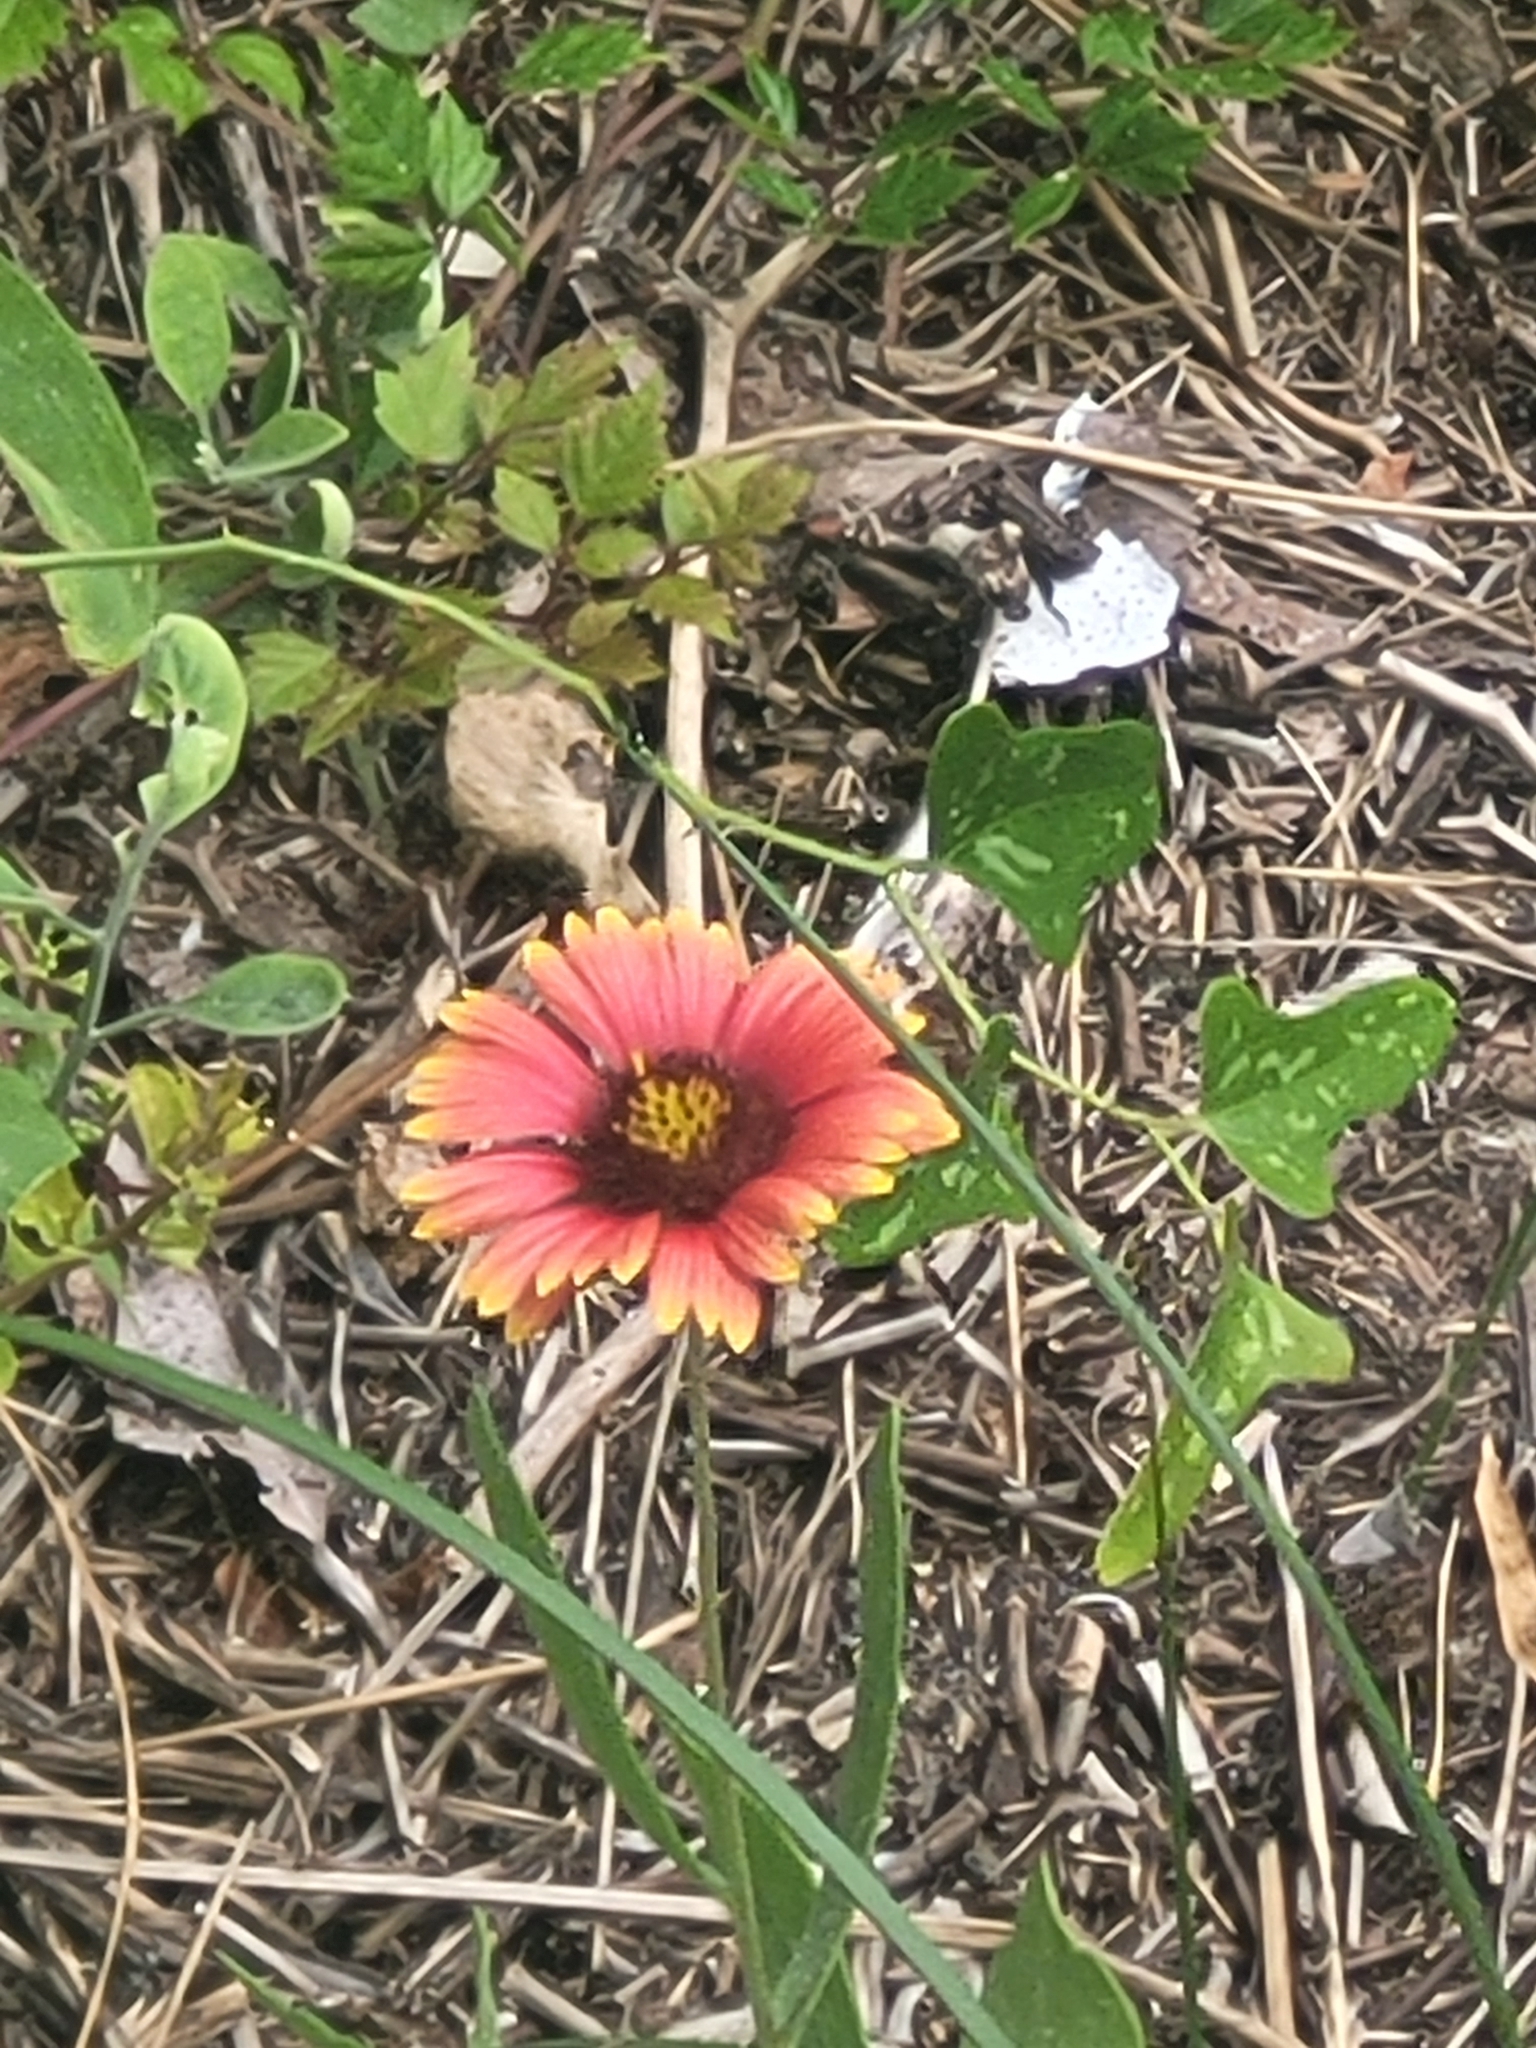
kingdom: Plantae
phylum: Tracheophyta
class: Magnoliopsida
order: Asterales
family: Asteraceae
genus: Gaillardia
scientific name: Gaillardia pulchella
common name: Firewheel
